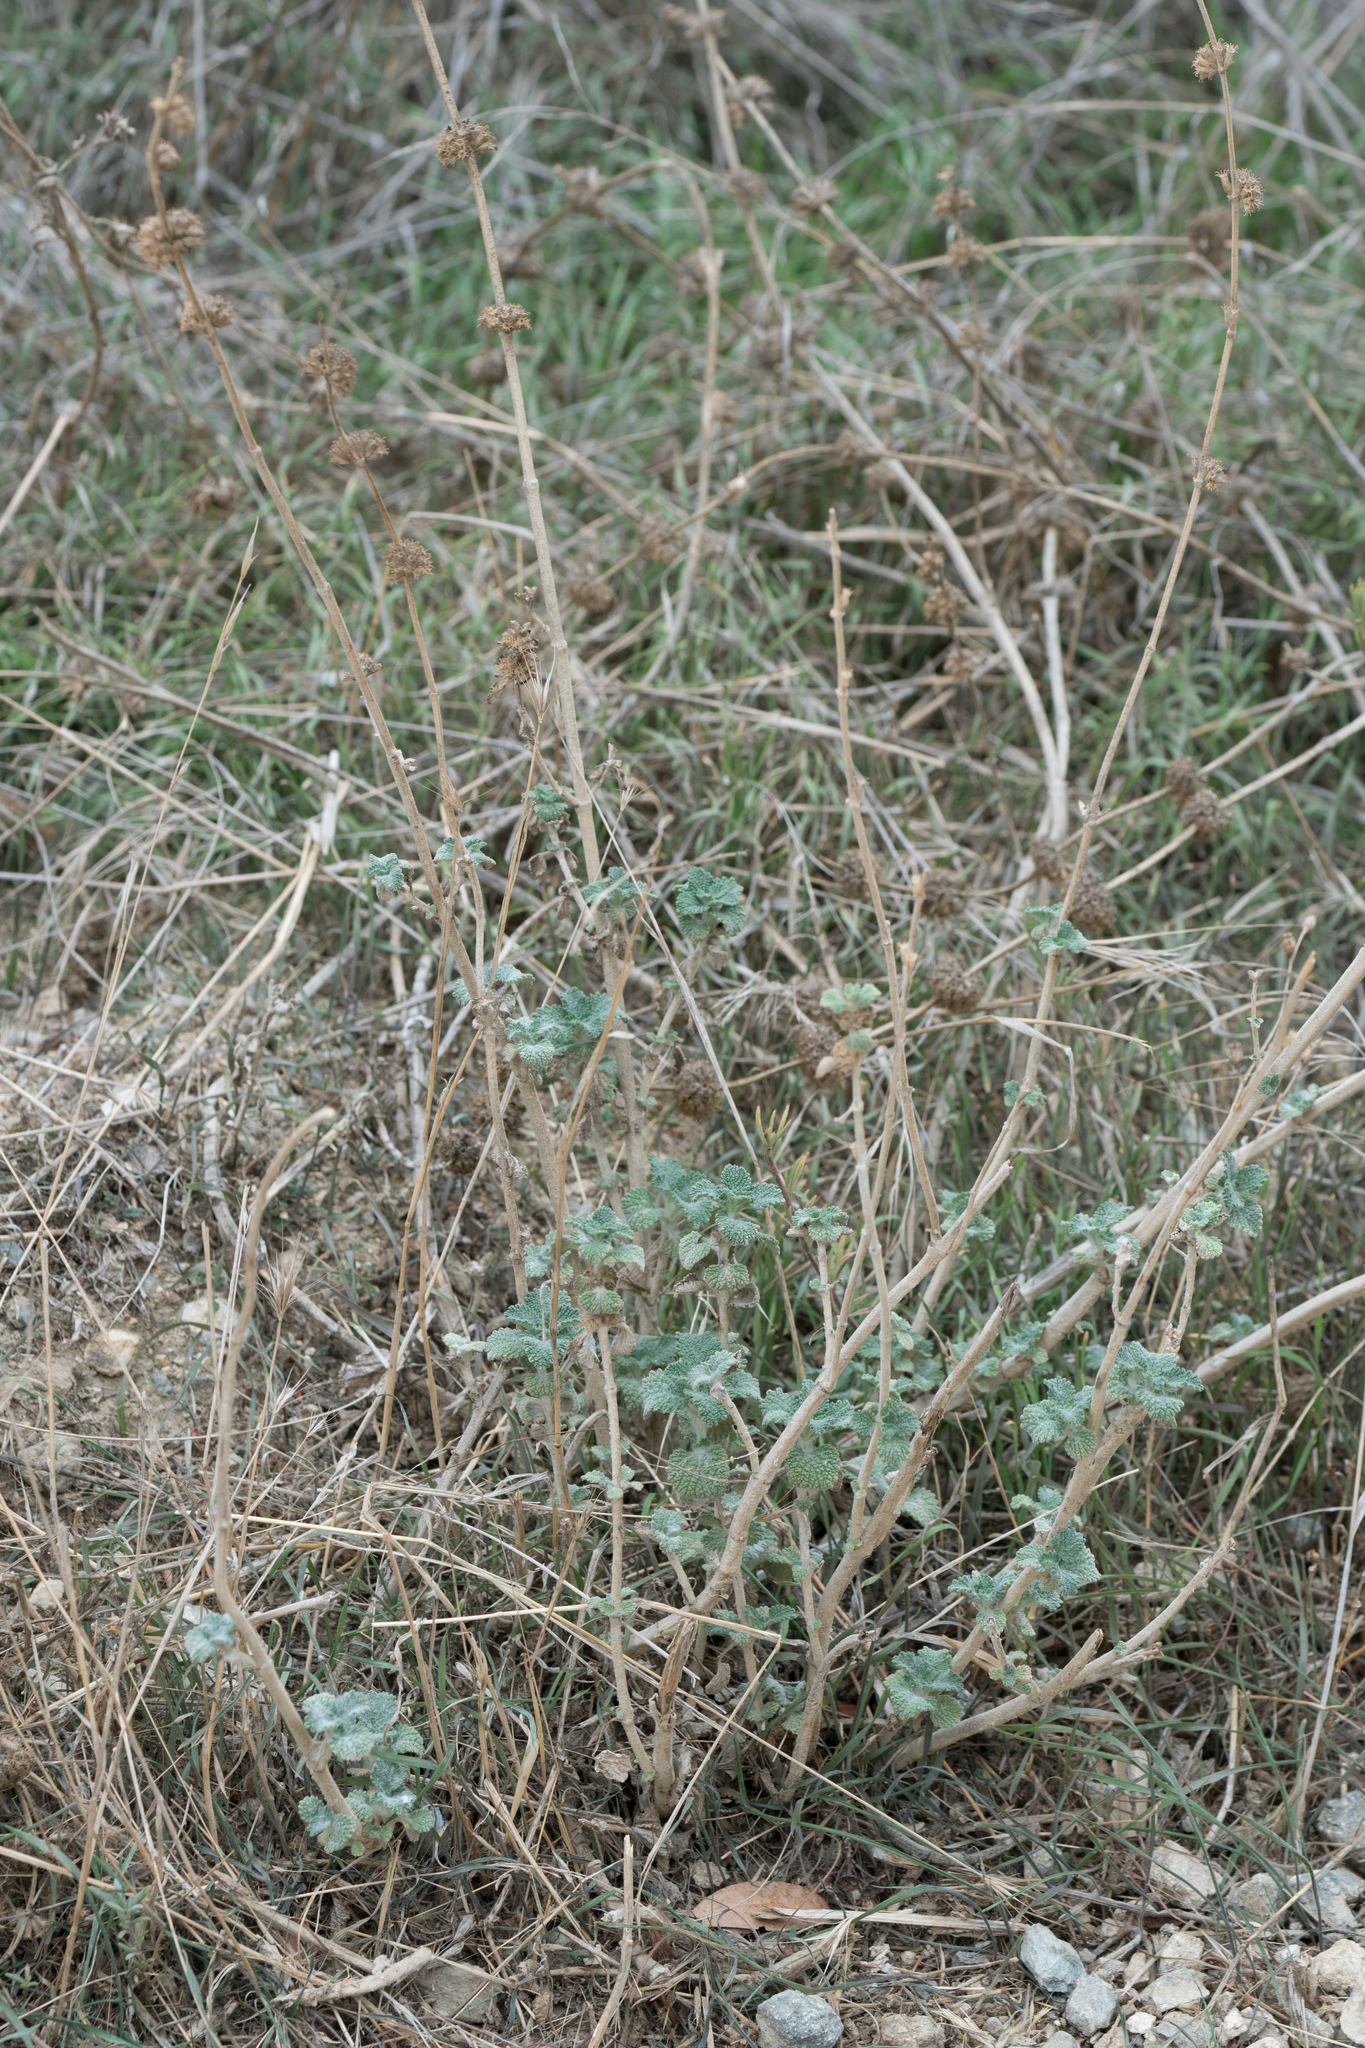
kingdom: Plantae
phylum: Tracheophyta
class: Magnoliopsida
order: Lamiales
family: Lamiaceae
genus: Marrubium
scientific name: Marrubium vulgare
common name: Horehound
